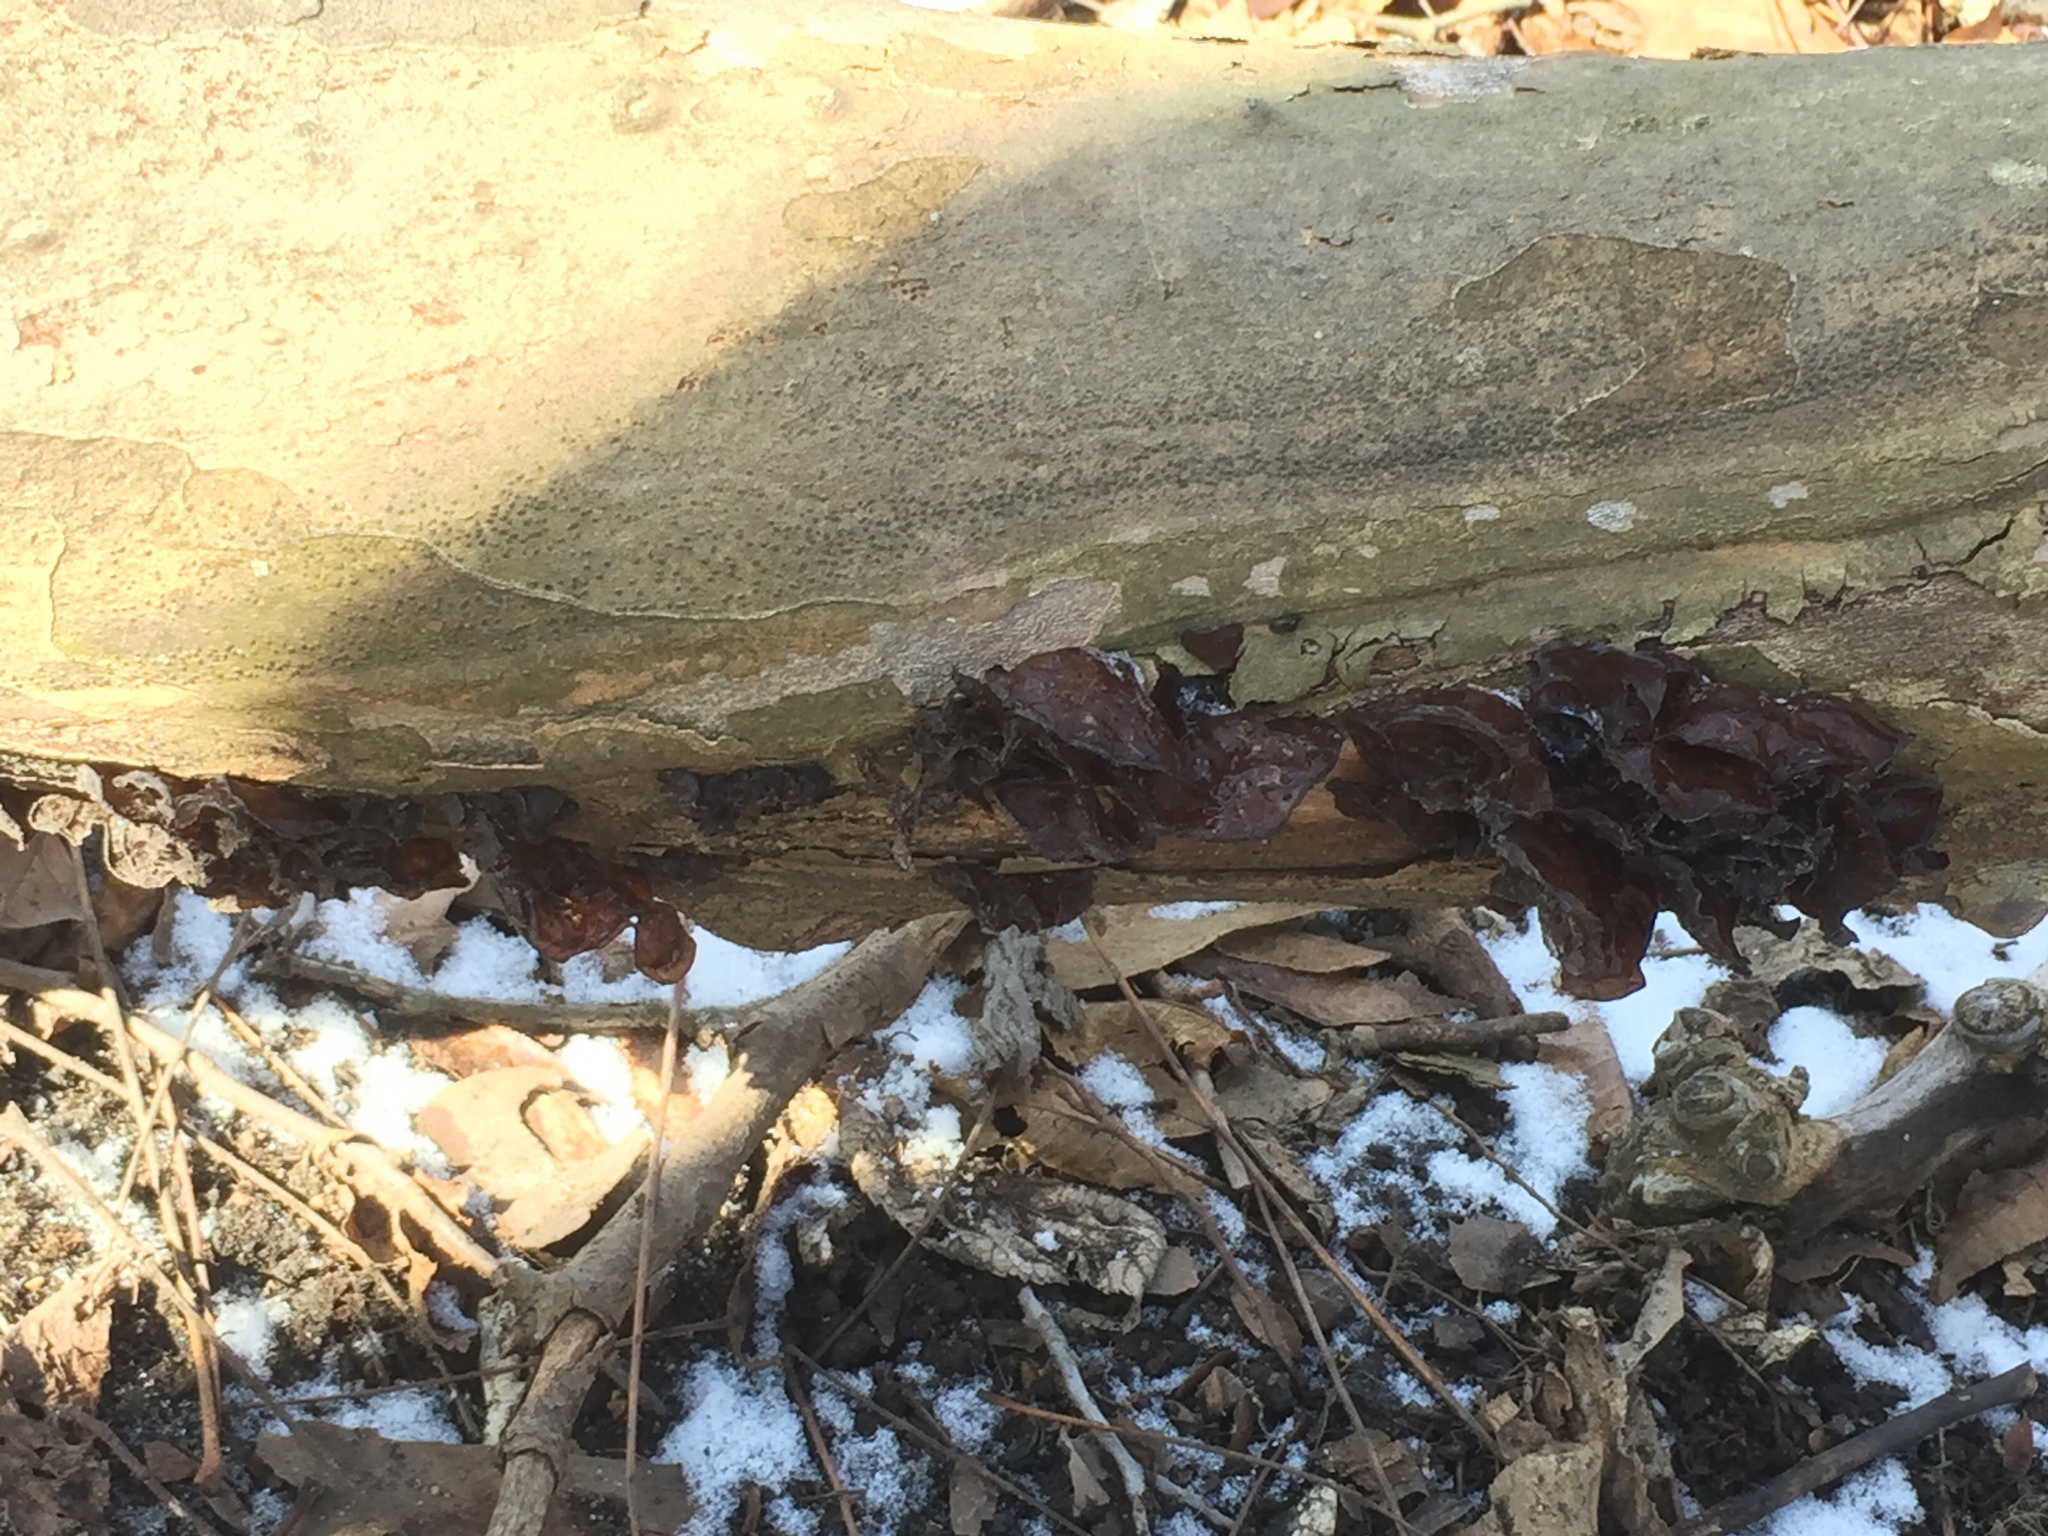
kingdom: Fungi
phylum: Basidiomycota
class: Agaricomycetes
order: Auriculariales
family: Auriculariaceae
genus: Exidia
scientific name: Exidia
